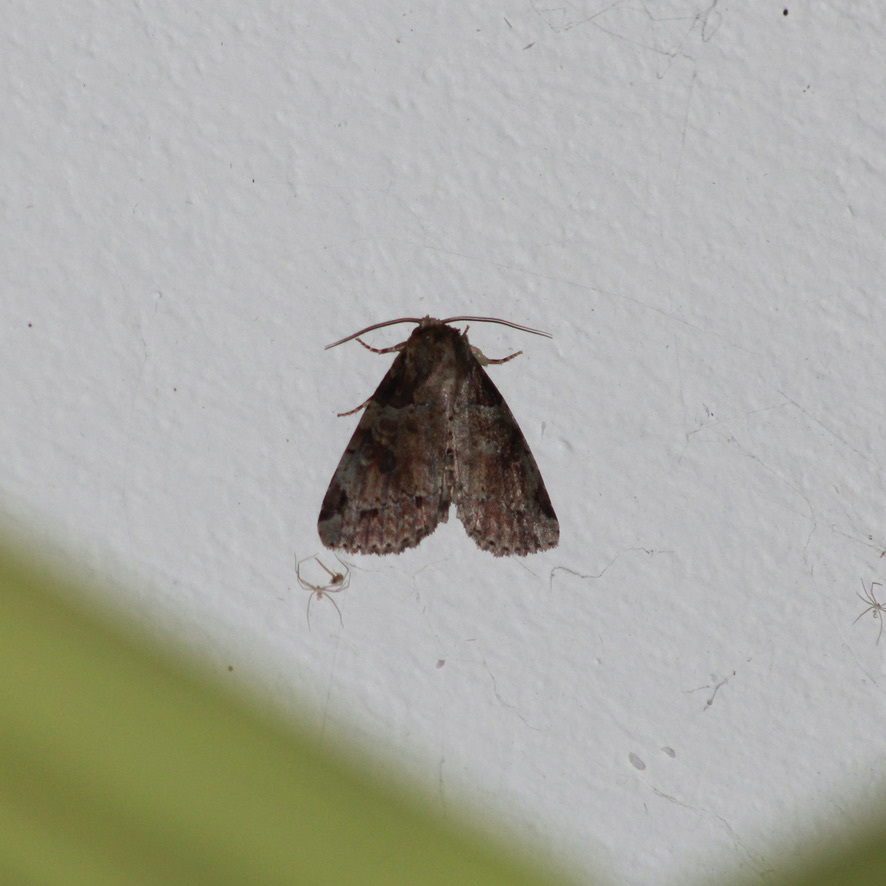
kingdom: Animalia
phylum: Arthropoda
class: Insecta
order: Lepidoptera
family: Noctuidae
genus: Stibaera
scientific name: Stibaera curvilineata
